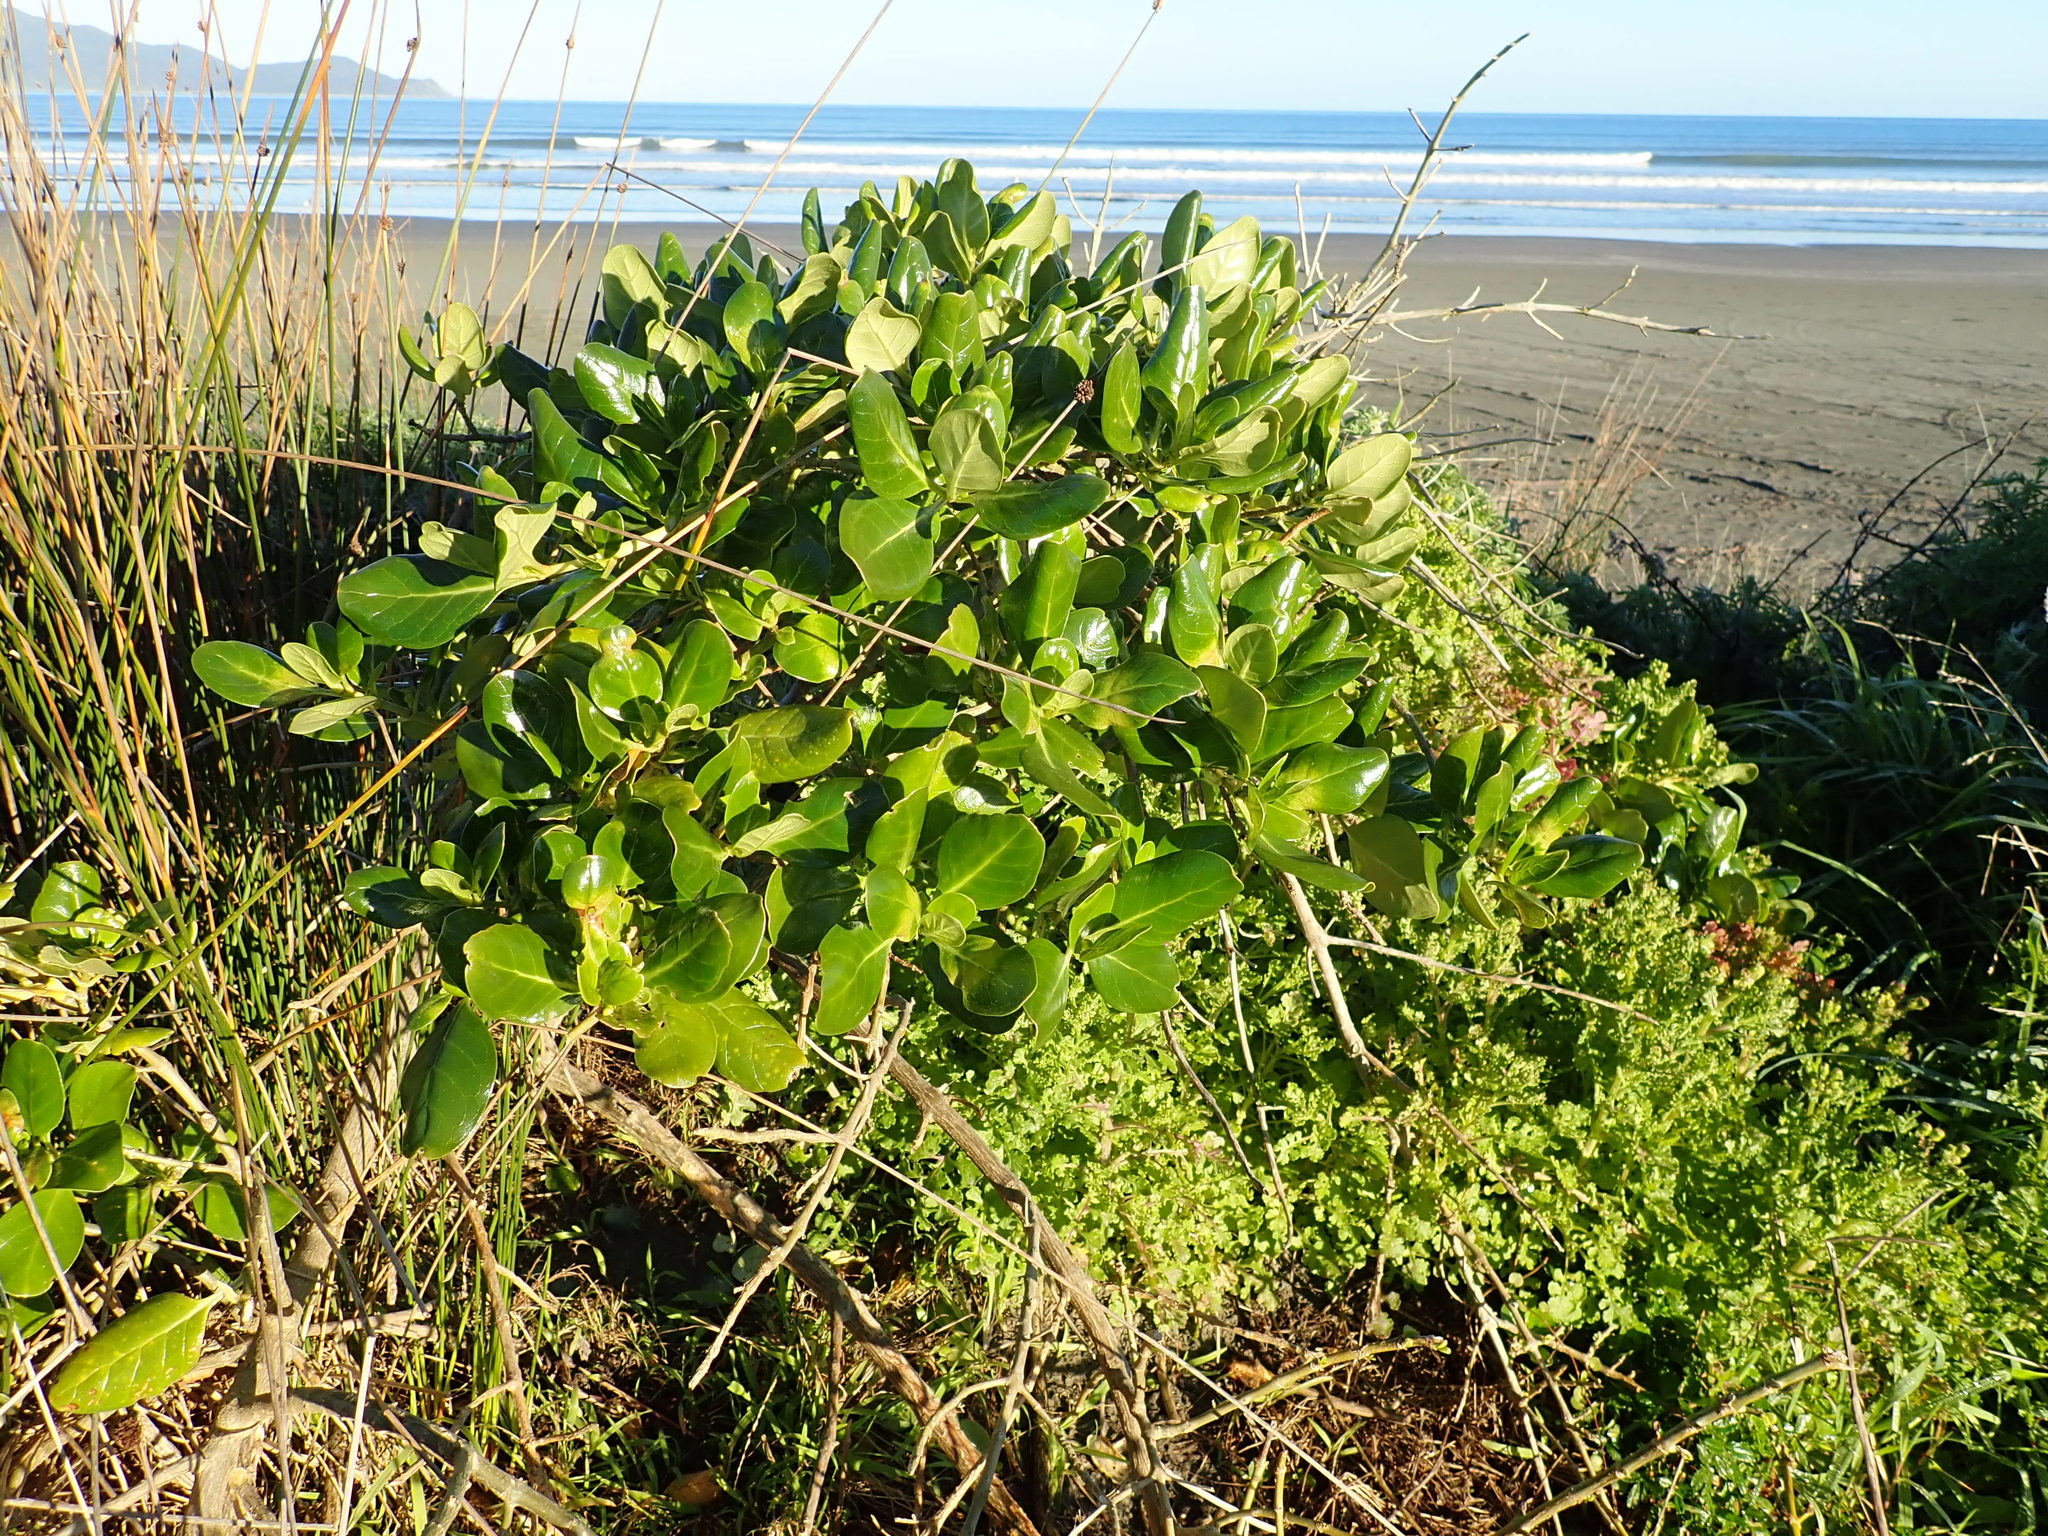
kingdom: Plantae
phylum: Tracheophyta
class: Magnoliopsida
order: Gentianales
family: Rubiaceae
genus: Coprosma
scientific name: Coprosma repens
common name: Tree bedstraw
